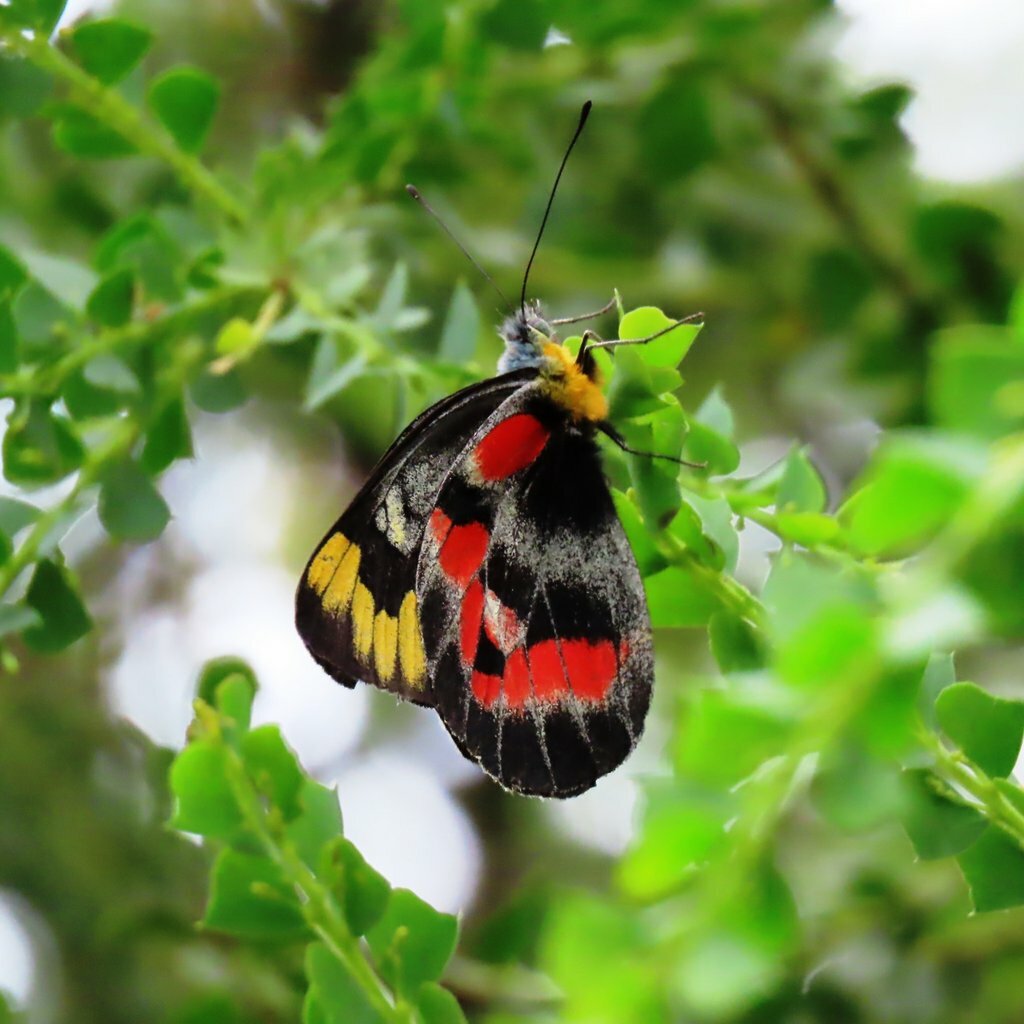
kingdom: Animalia
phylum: Arthropoda
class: Insecta
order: Lepidoptera
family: Pieridae
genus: Delias
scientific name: Delias harpalyce
